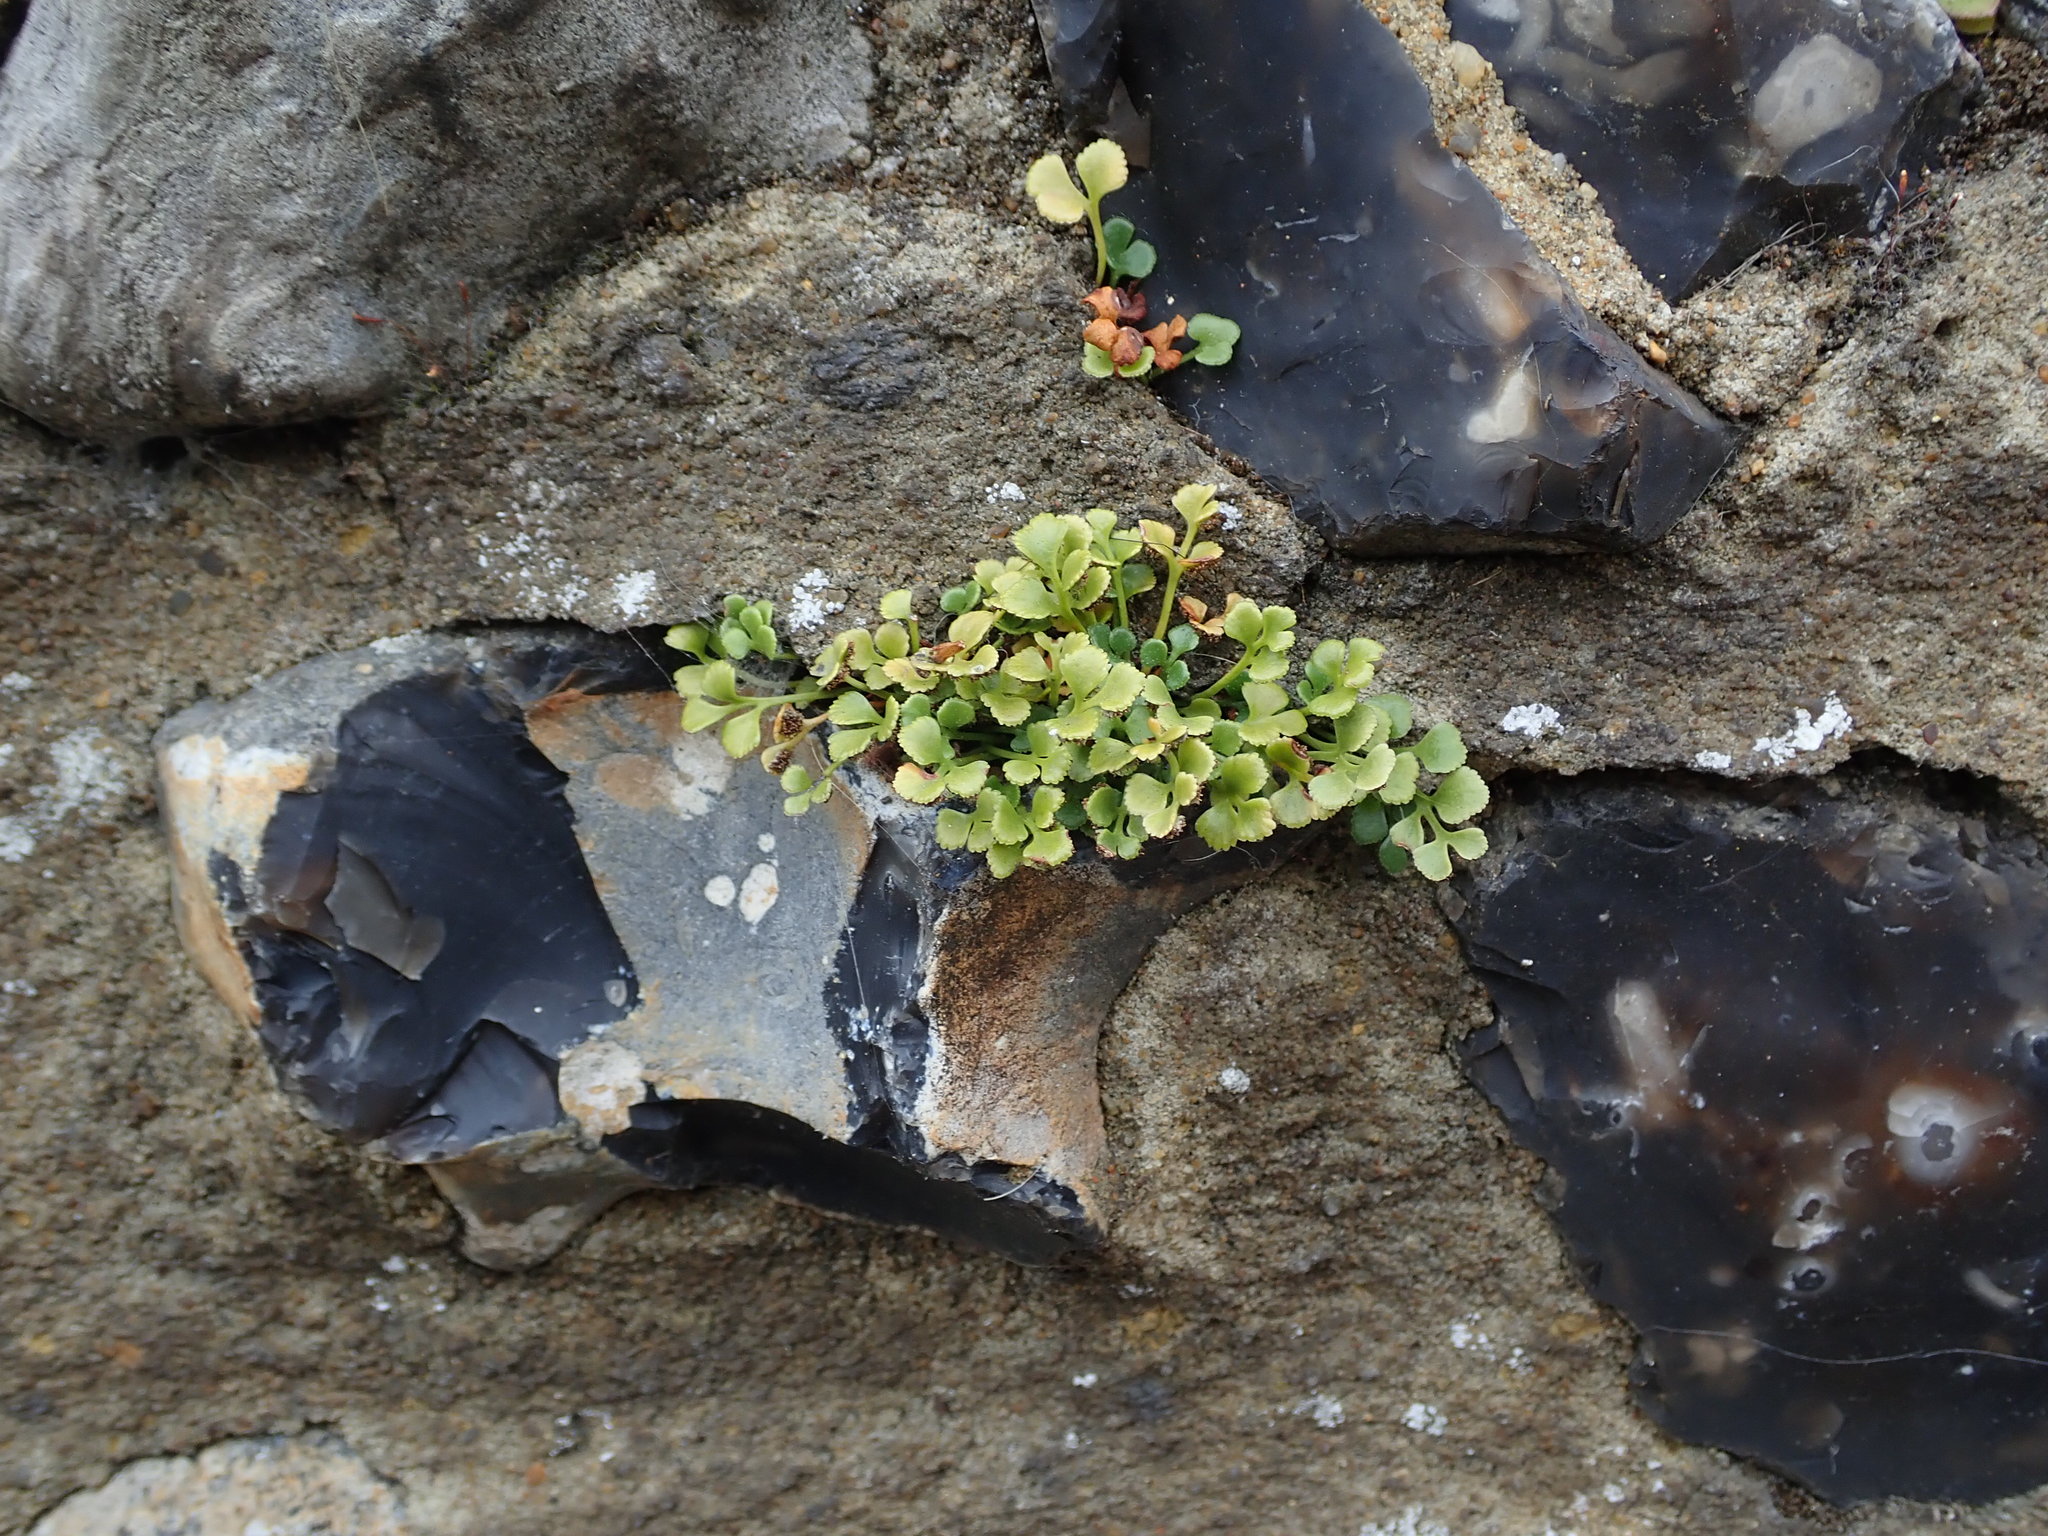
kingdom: Plantae
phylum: Tracheophyta
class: Polypodiopsida
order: Polypodiales
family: Aspleniaceae
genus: Asplenium
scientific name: Asplenium ruta-muraria
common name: Wall-rue
